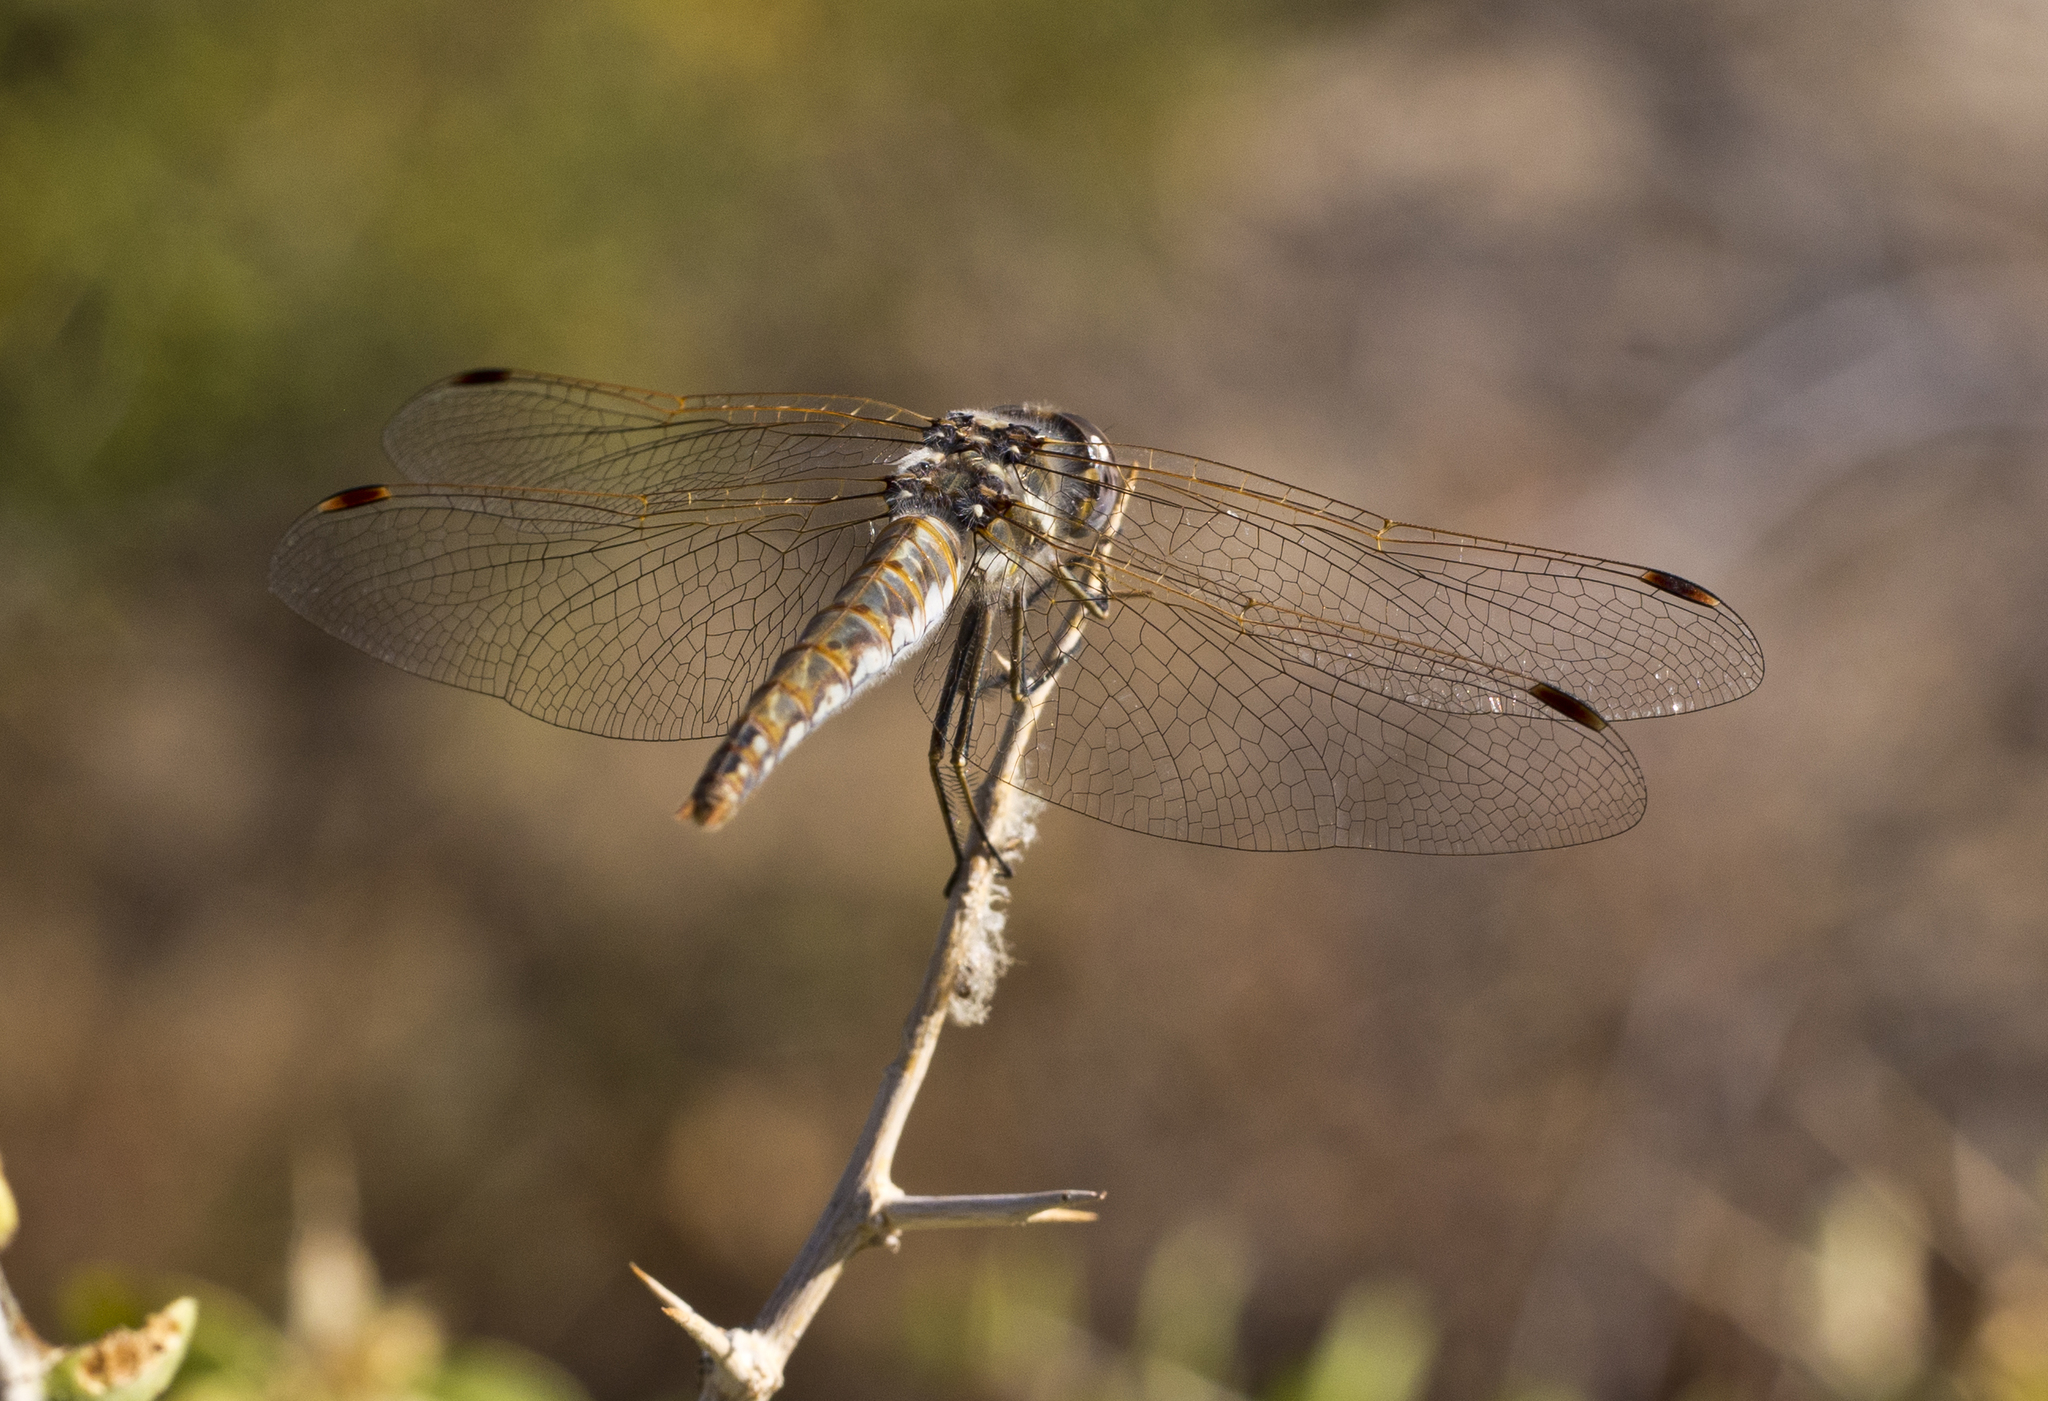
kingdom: Animalia
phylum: Arthropoda
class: Insecta
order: Odonata
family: Libellulidae
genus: Sympetrum
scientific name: Sympetrum corruptum
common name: Variegated meadowhawk
